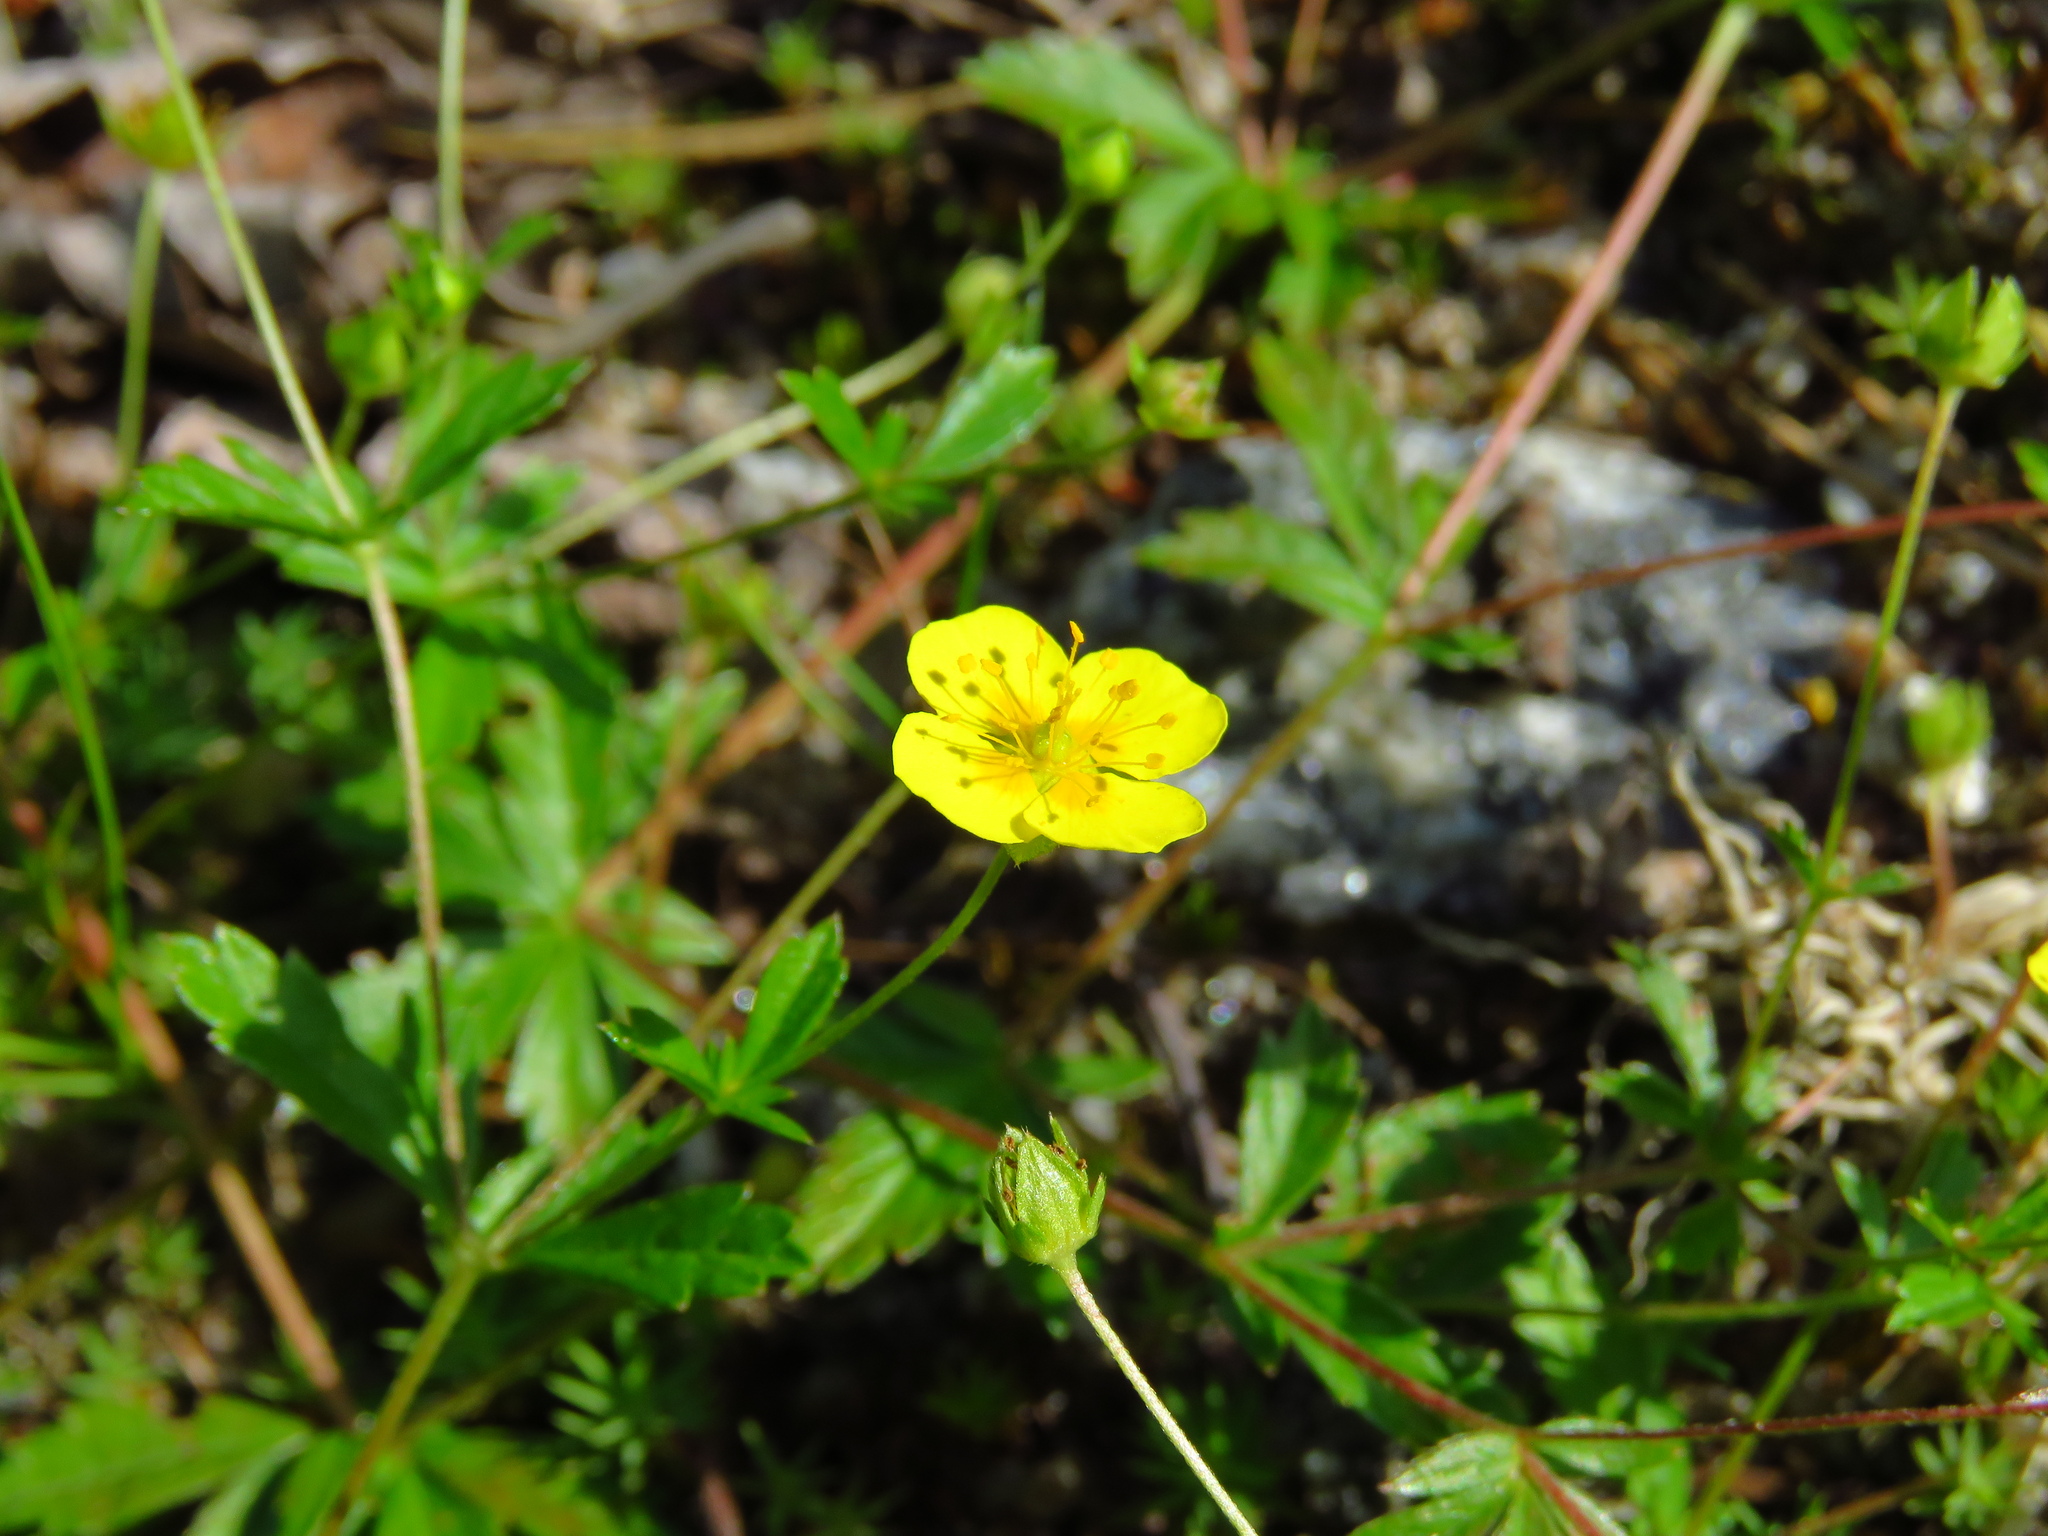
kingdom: Plantae
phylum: Tracheophyta
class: Magnoliopsida
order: Rosales
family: Rosaceae
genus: Potentilla
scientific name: Potentilla erecta
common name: Tormentil
